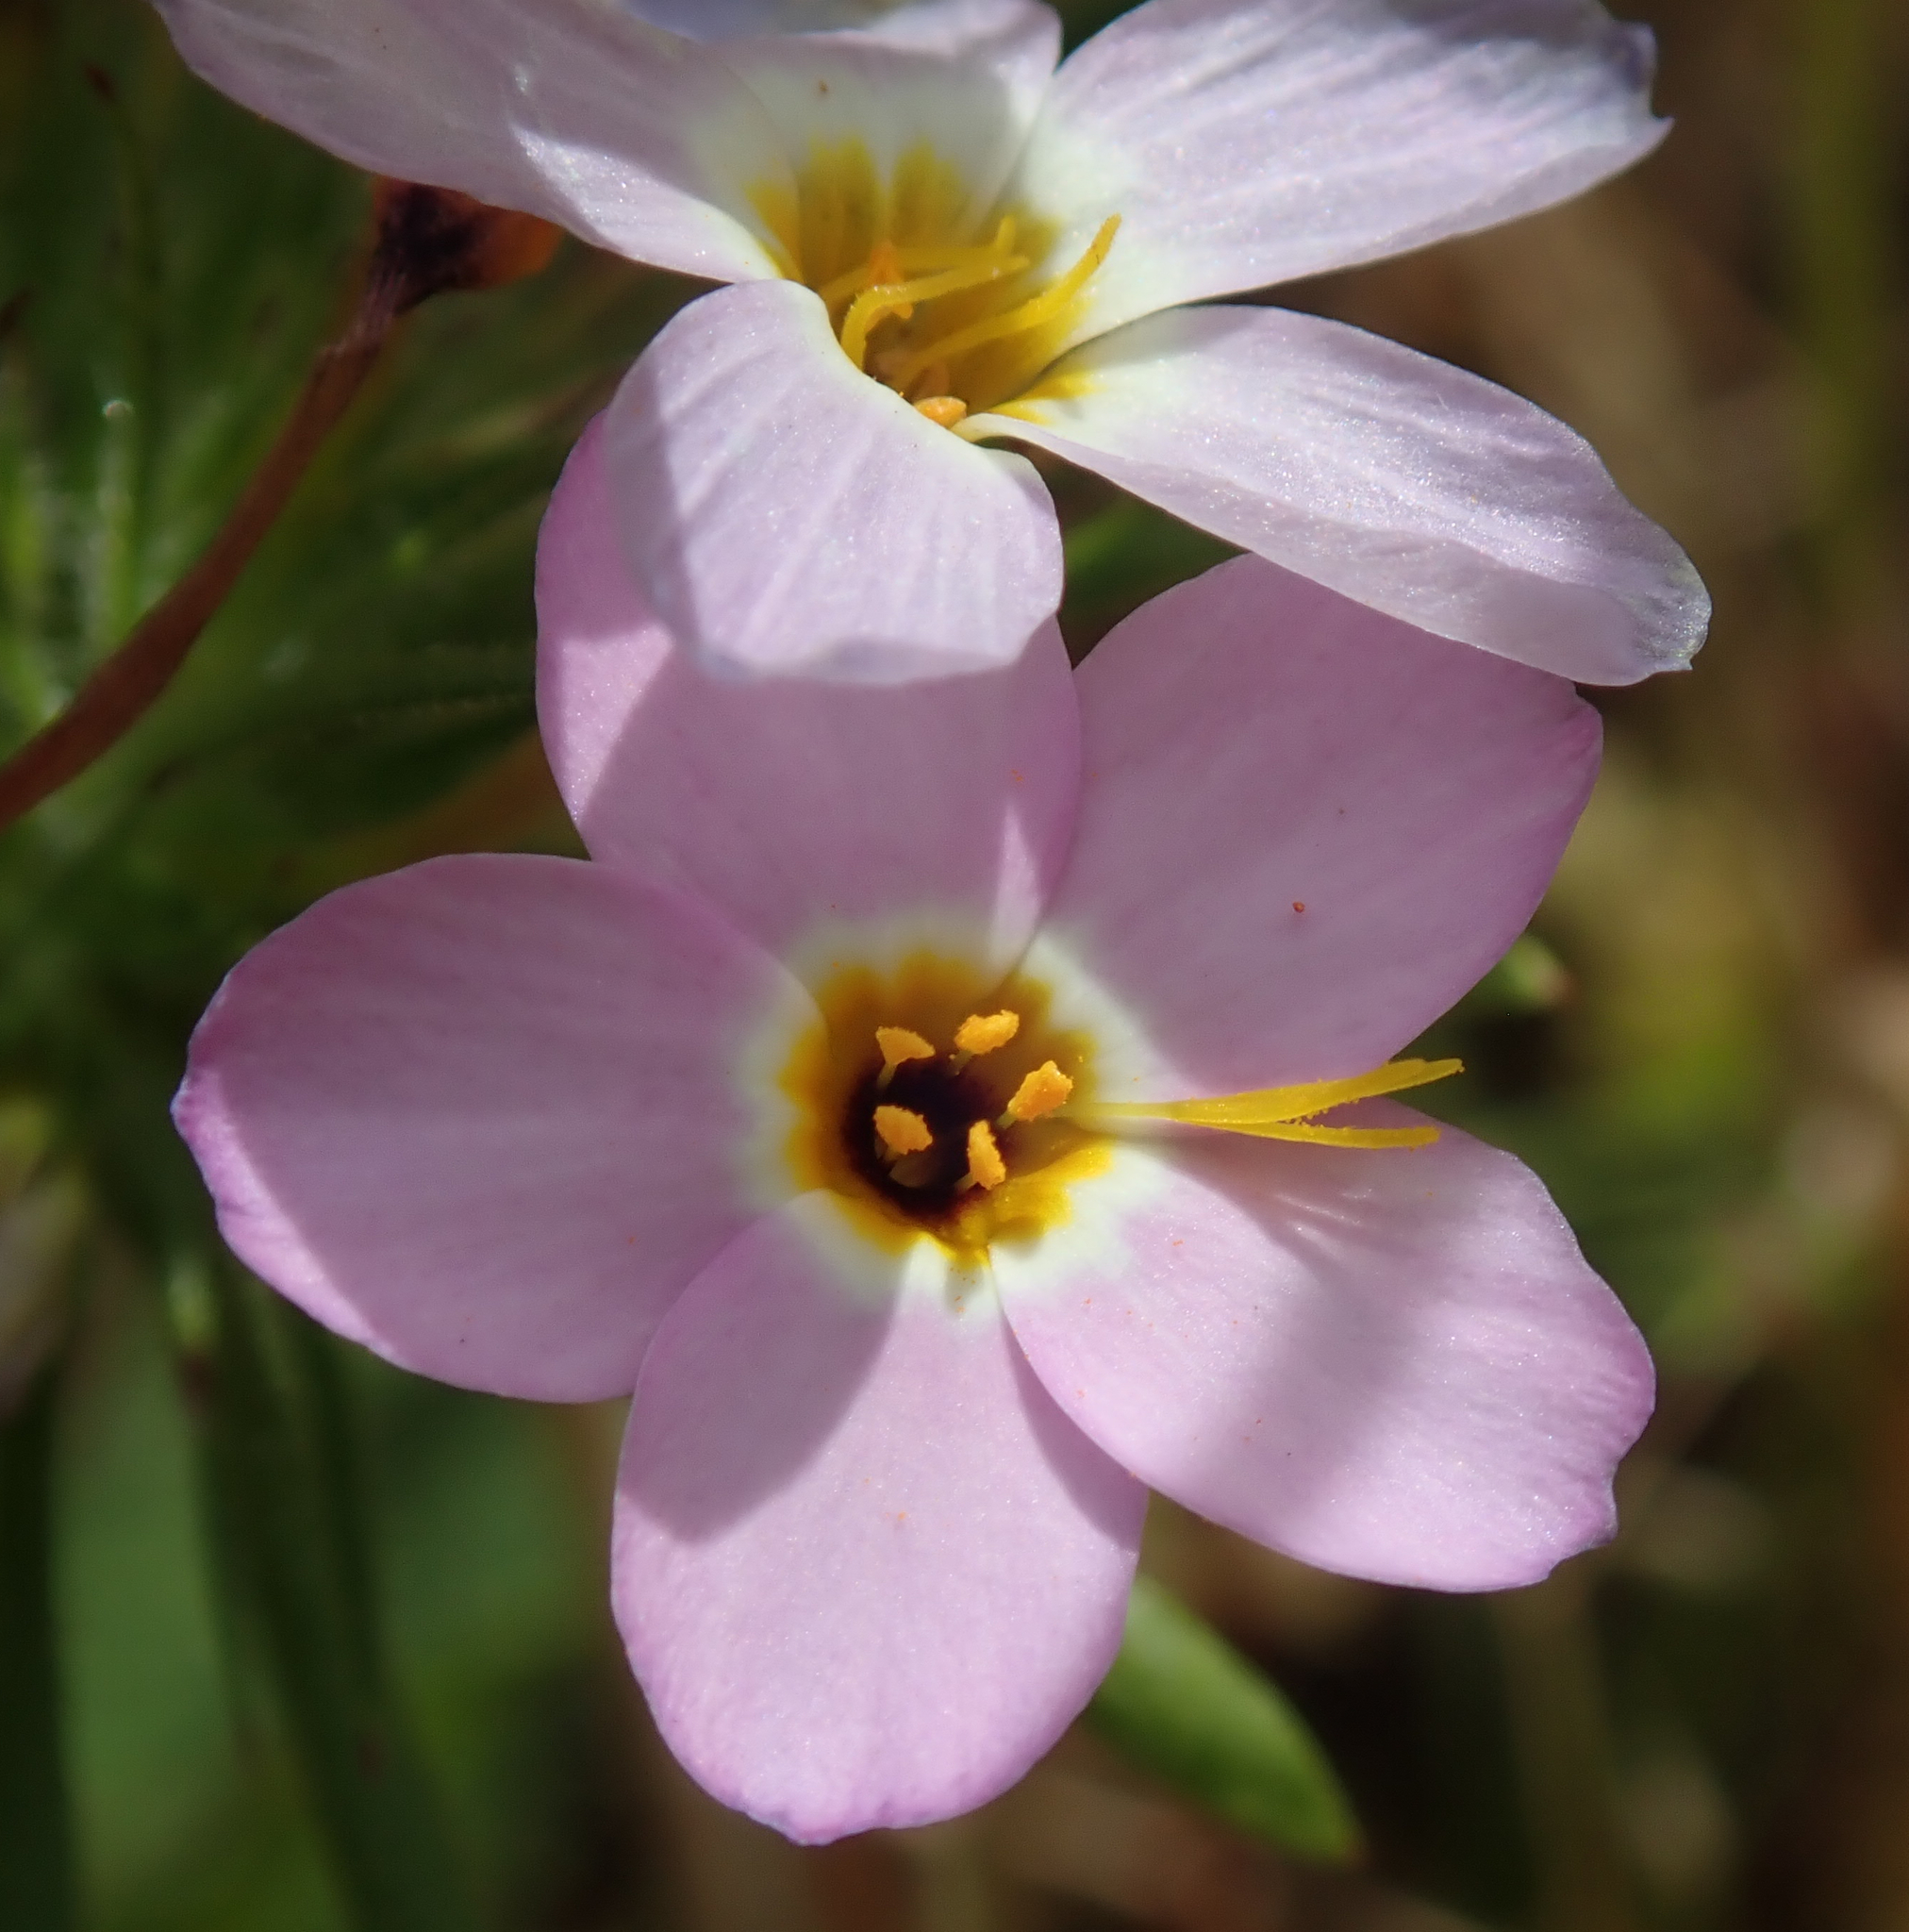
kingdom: Plantae
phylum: Tracheophyta
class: Magnoliopsida
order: Ericales
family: Polemoniaceae
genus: Leptosiphon
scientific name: Leptosiphon androsaceus
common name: False babystars
